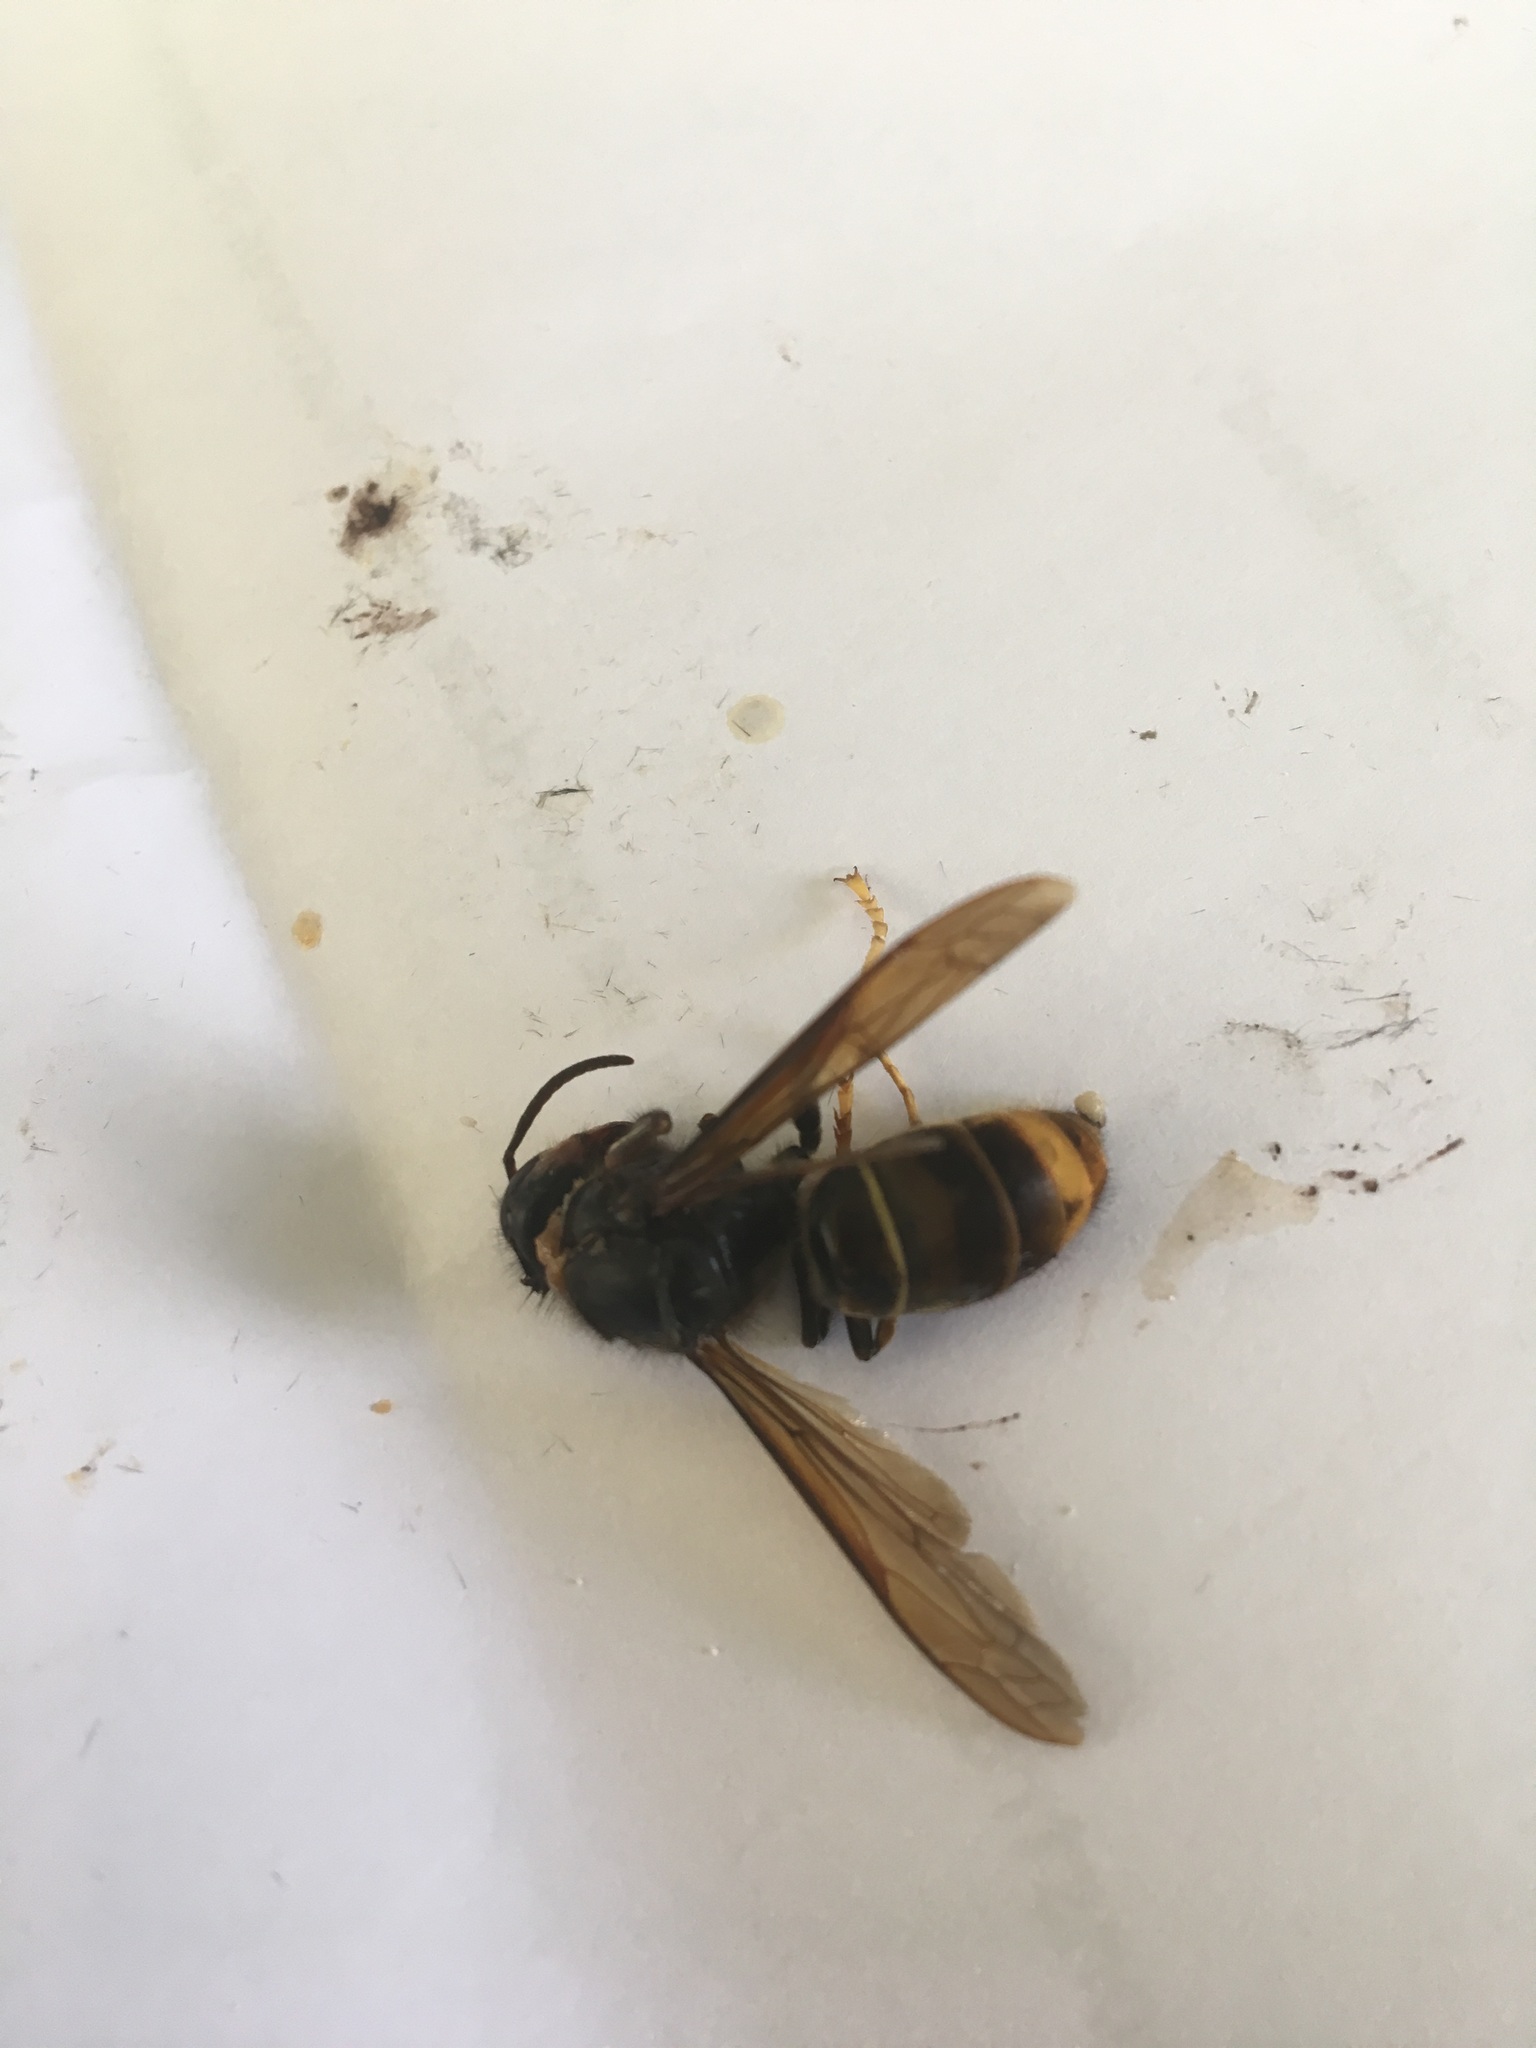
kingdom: Animalia
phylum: Arthropoda
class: Insecta
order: Hymenoptera
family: Vespidae
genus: Vespa
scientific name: Vespa velutina
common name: Asian hornet
